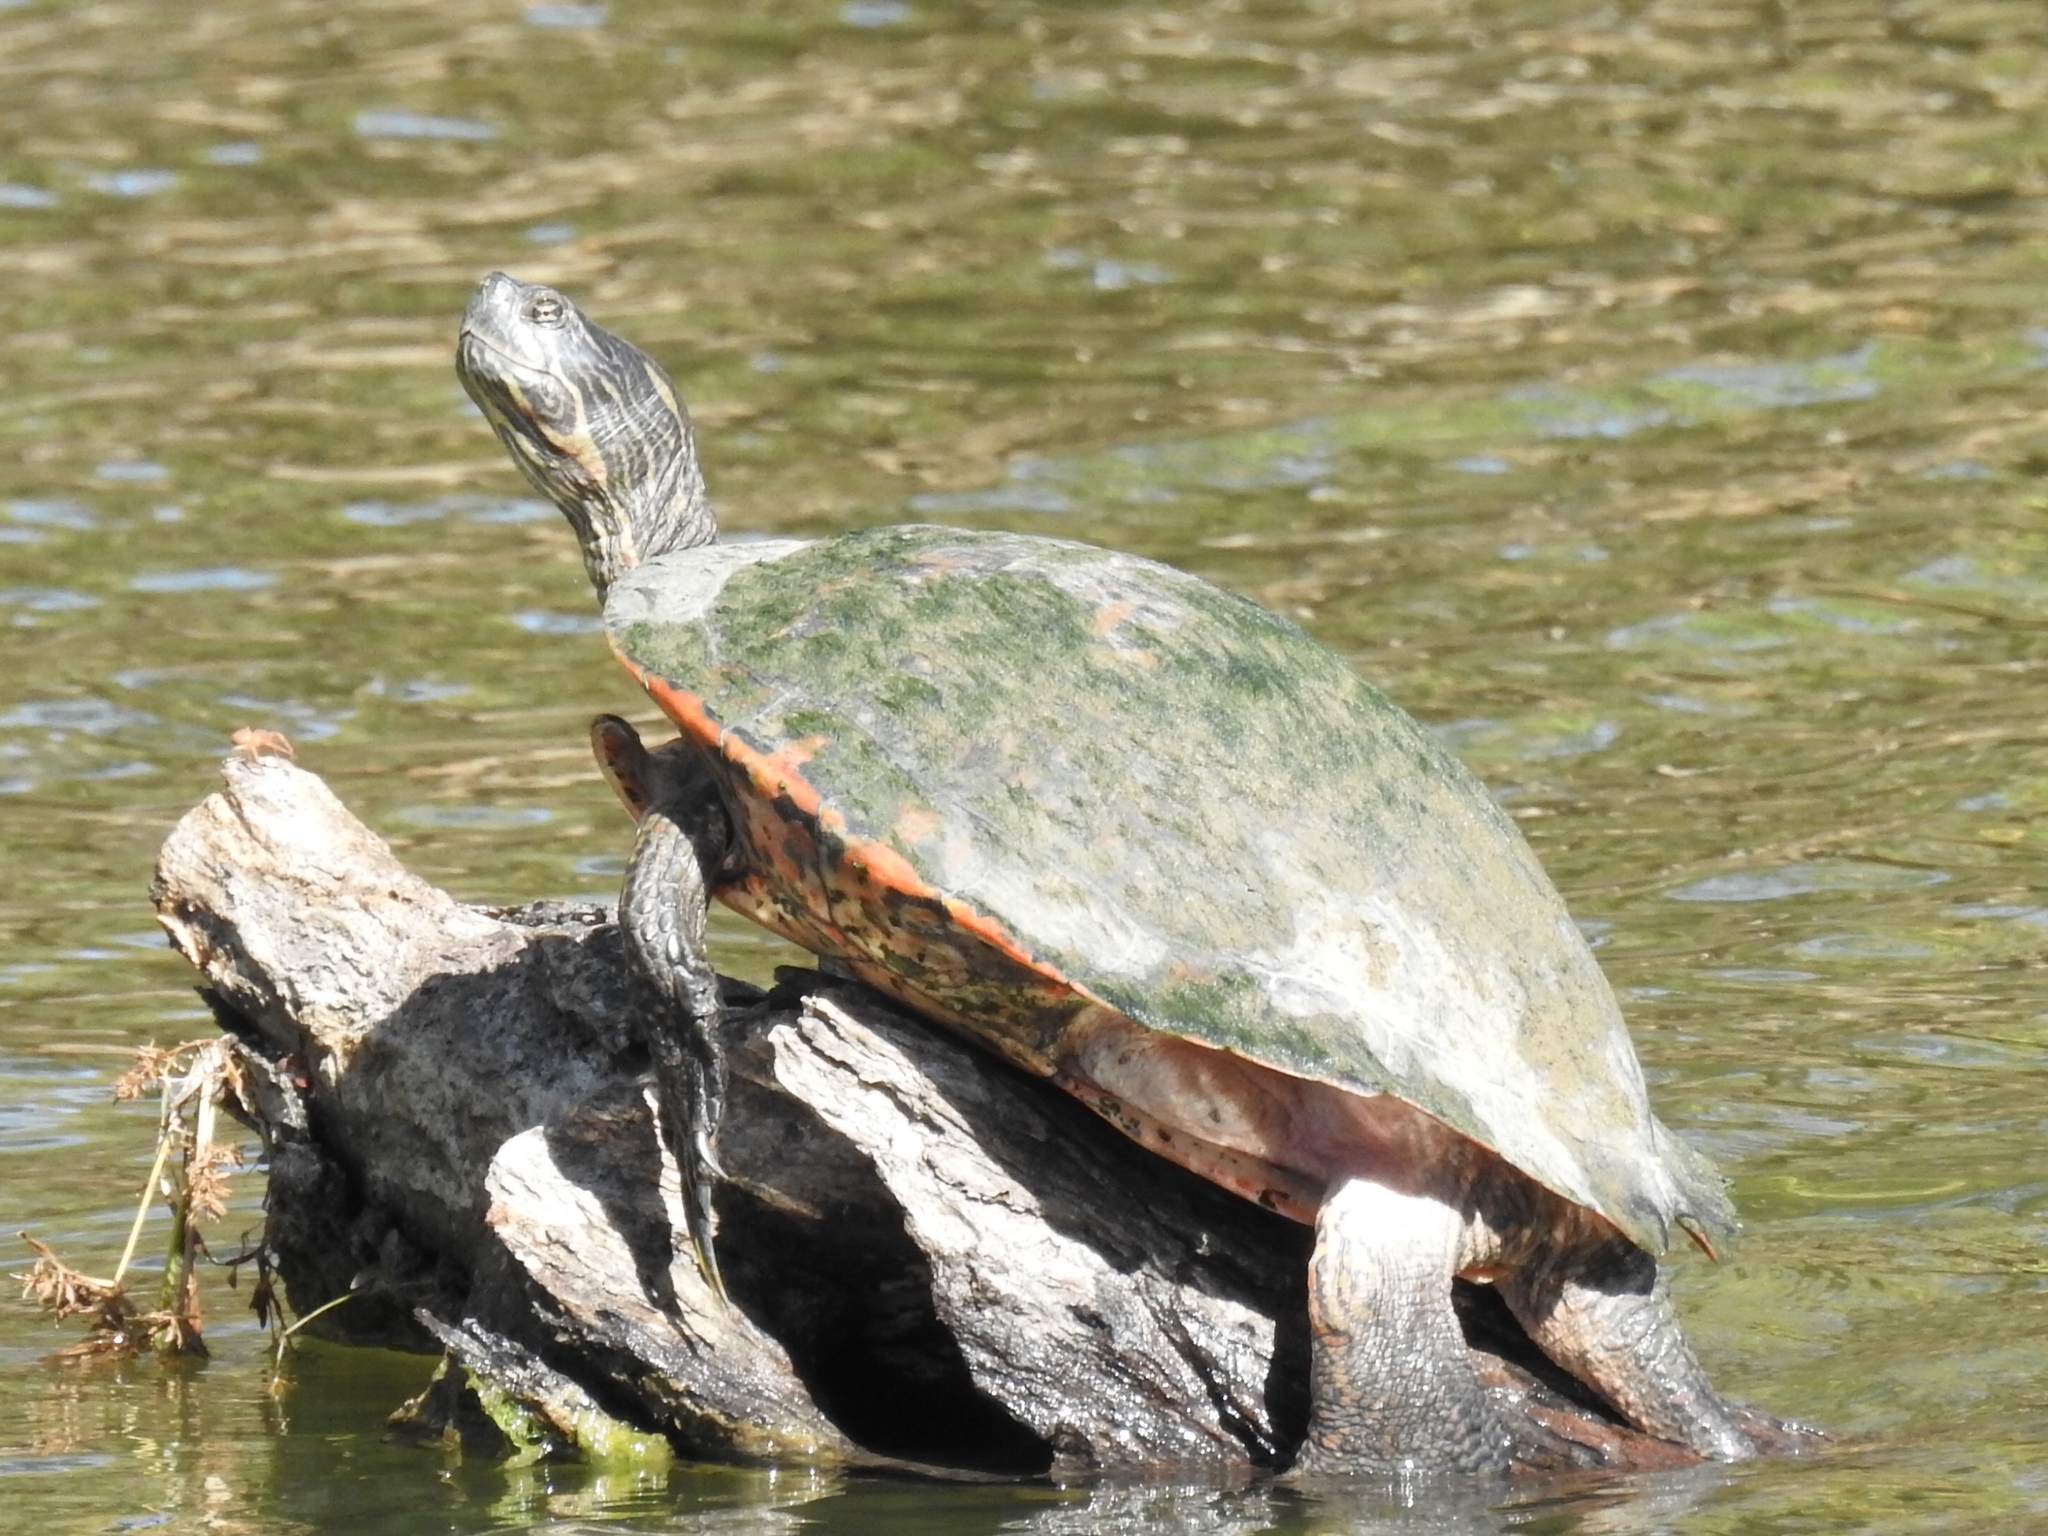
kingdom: Animalia
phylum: Chordata
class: Testudines
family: Emydidae
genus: Pseudemys
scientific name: Pseudemys concinna
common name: Eastern river cooter
